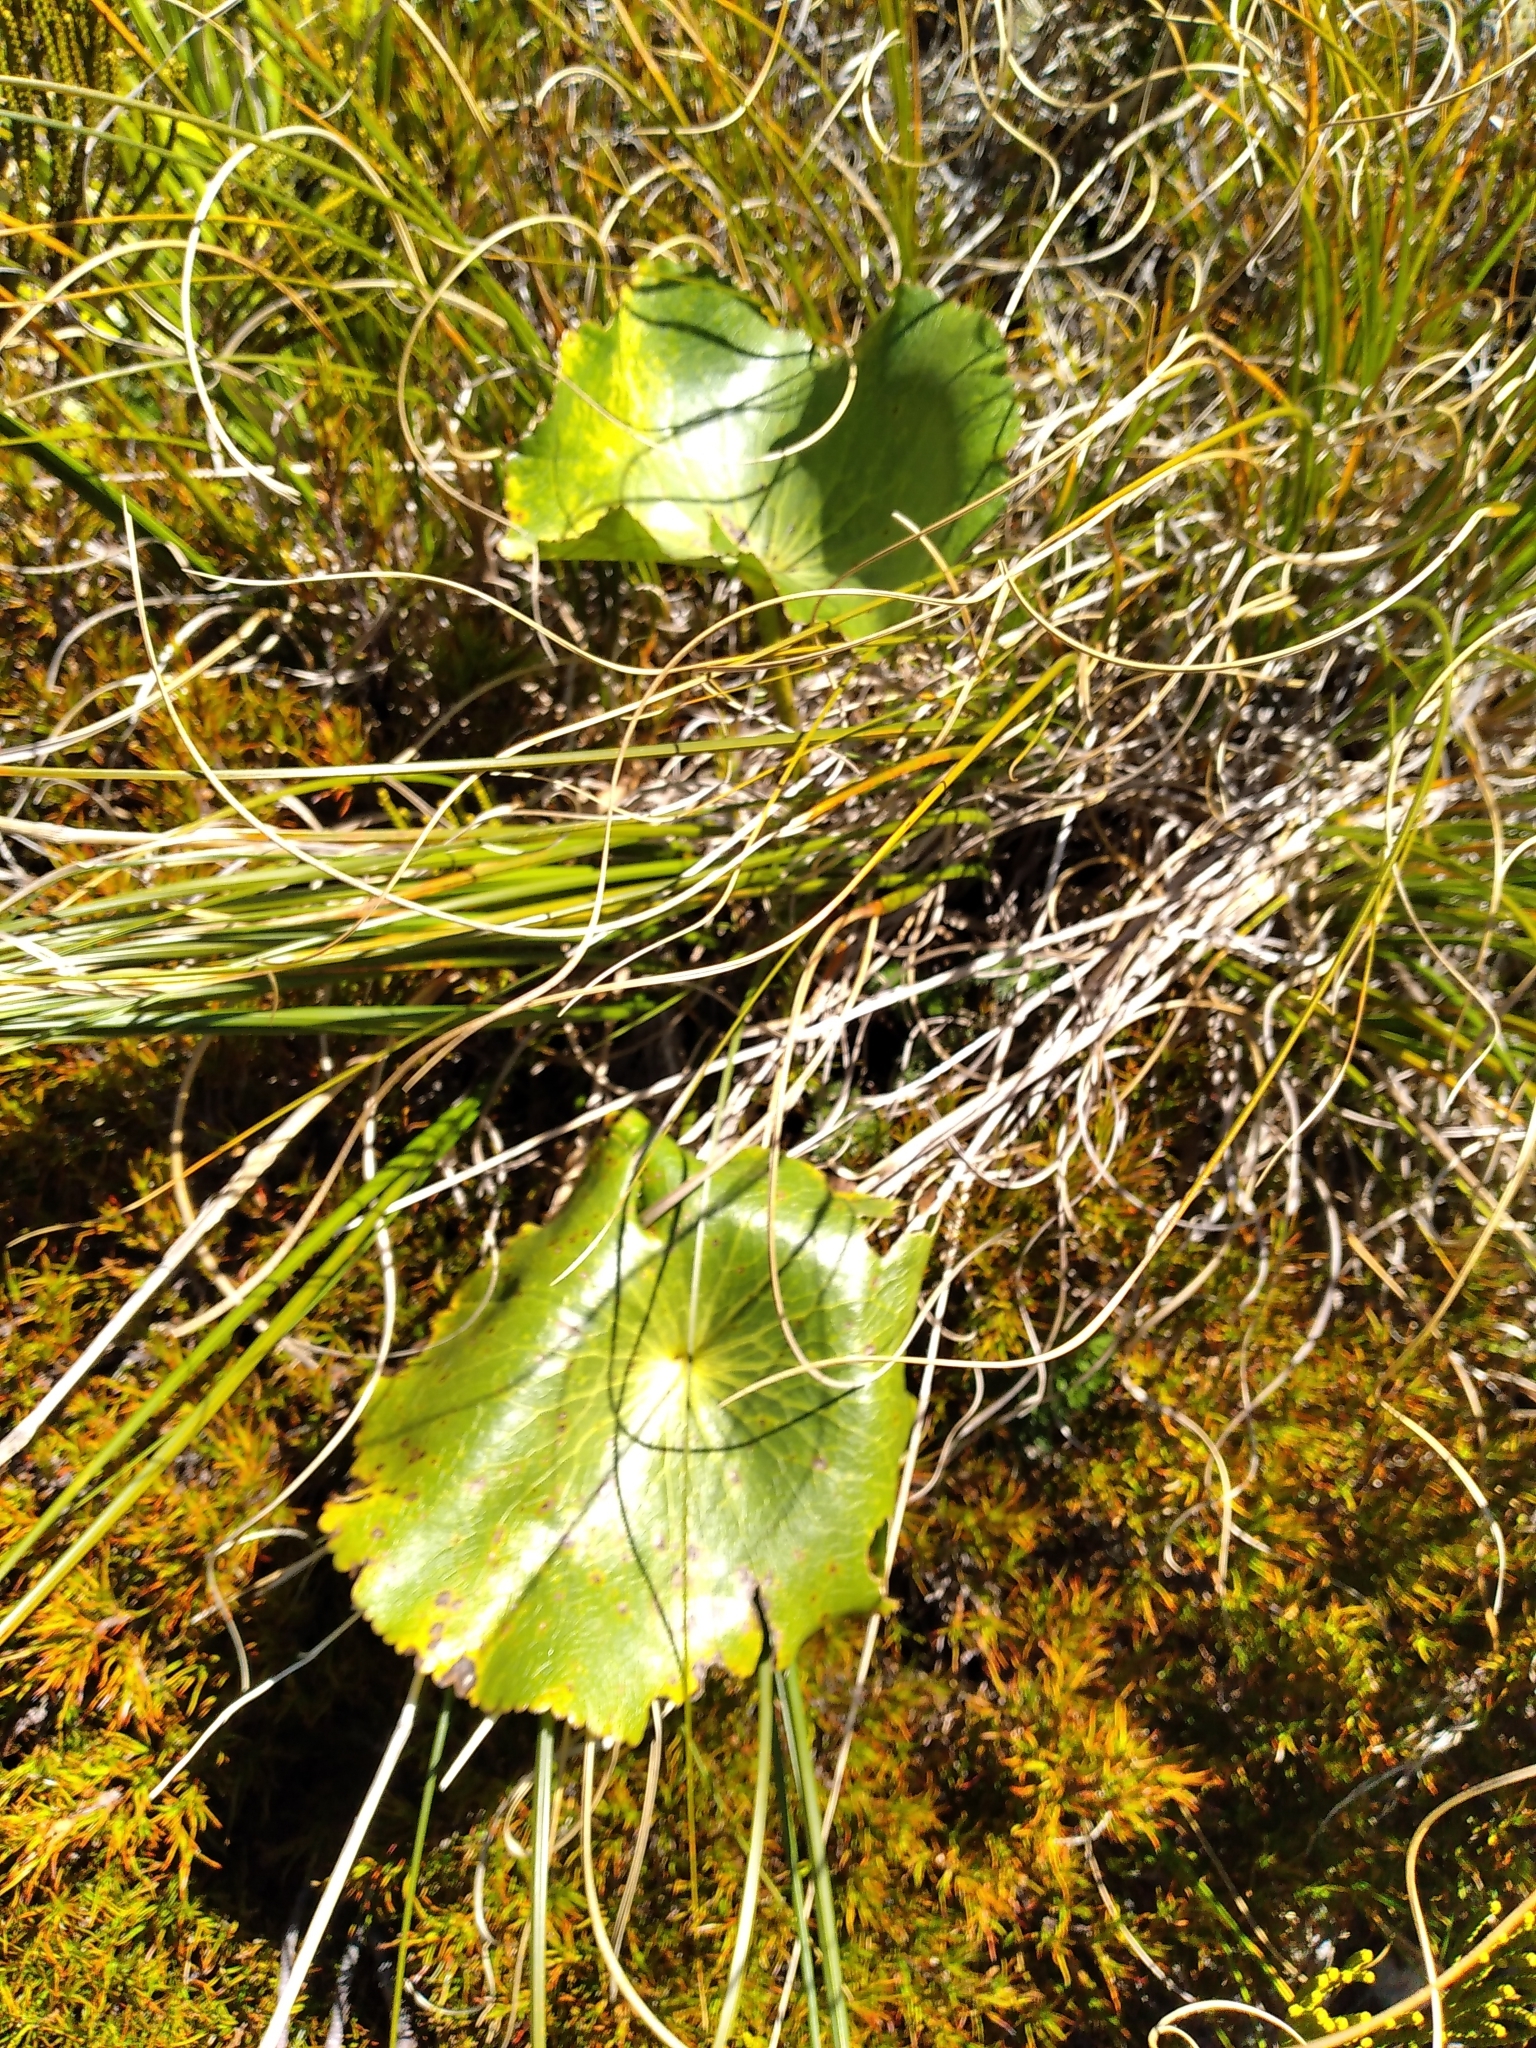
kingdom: Plantae
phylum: Tracheophyta
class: Magnoliopsida
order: Ranunculales
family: Ranunculaceae
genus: Ranunculus
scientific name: Ranunculus lyallii
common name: Mountain-lily
